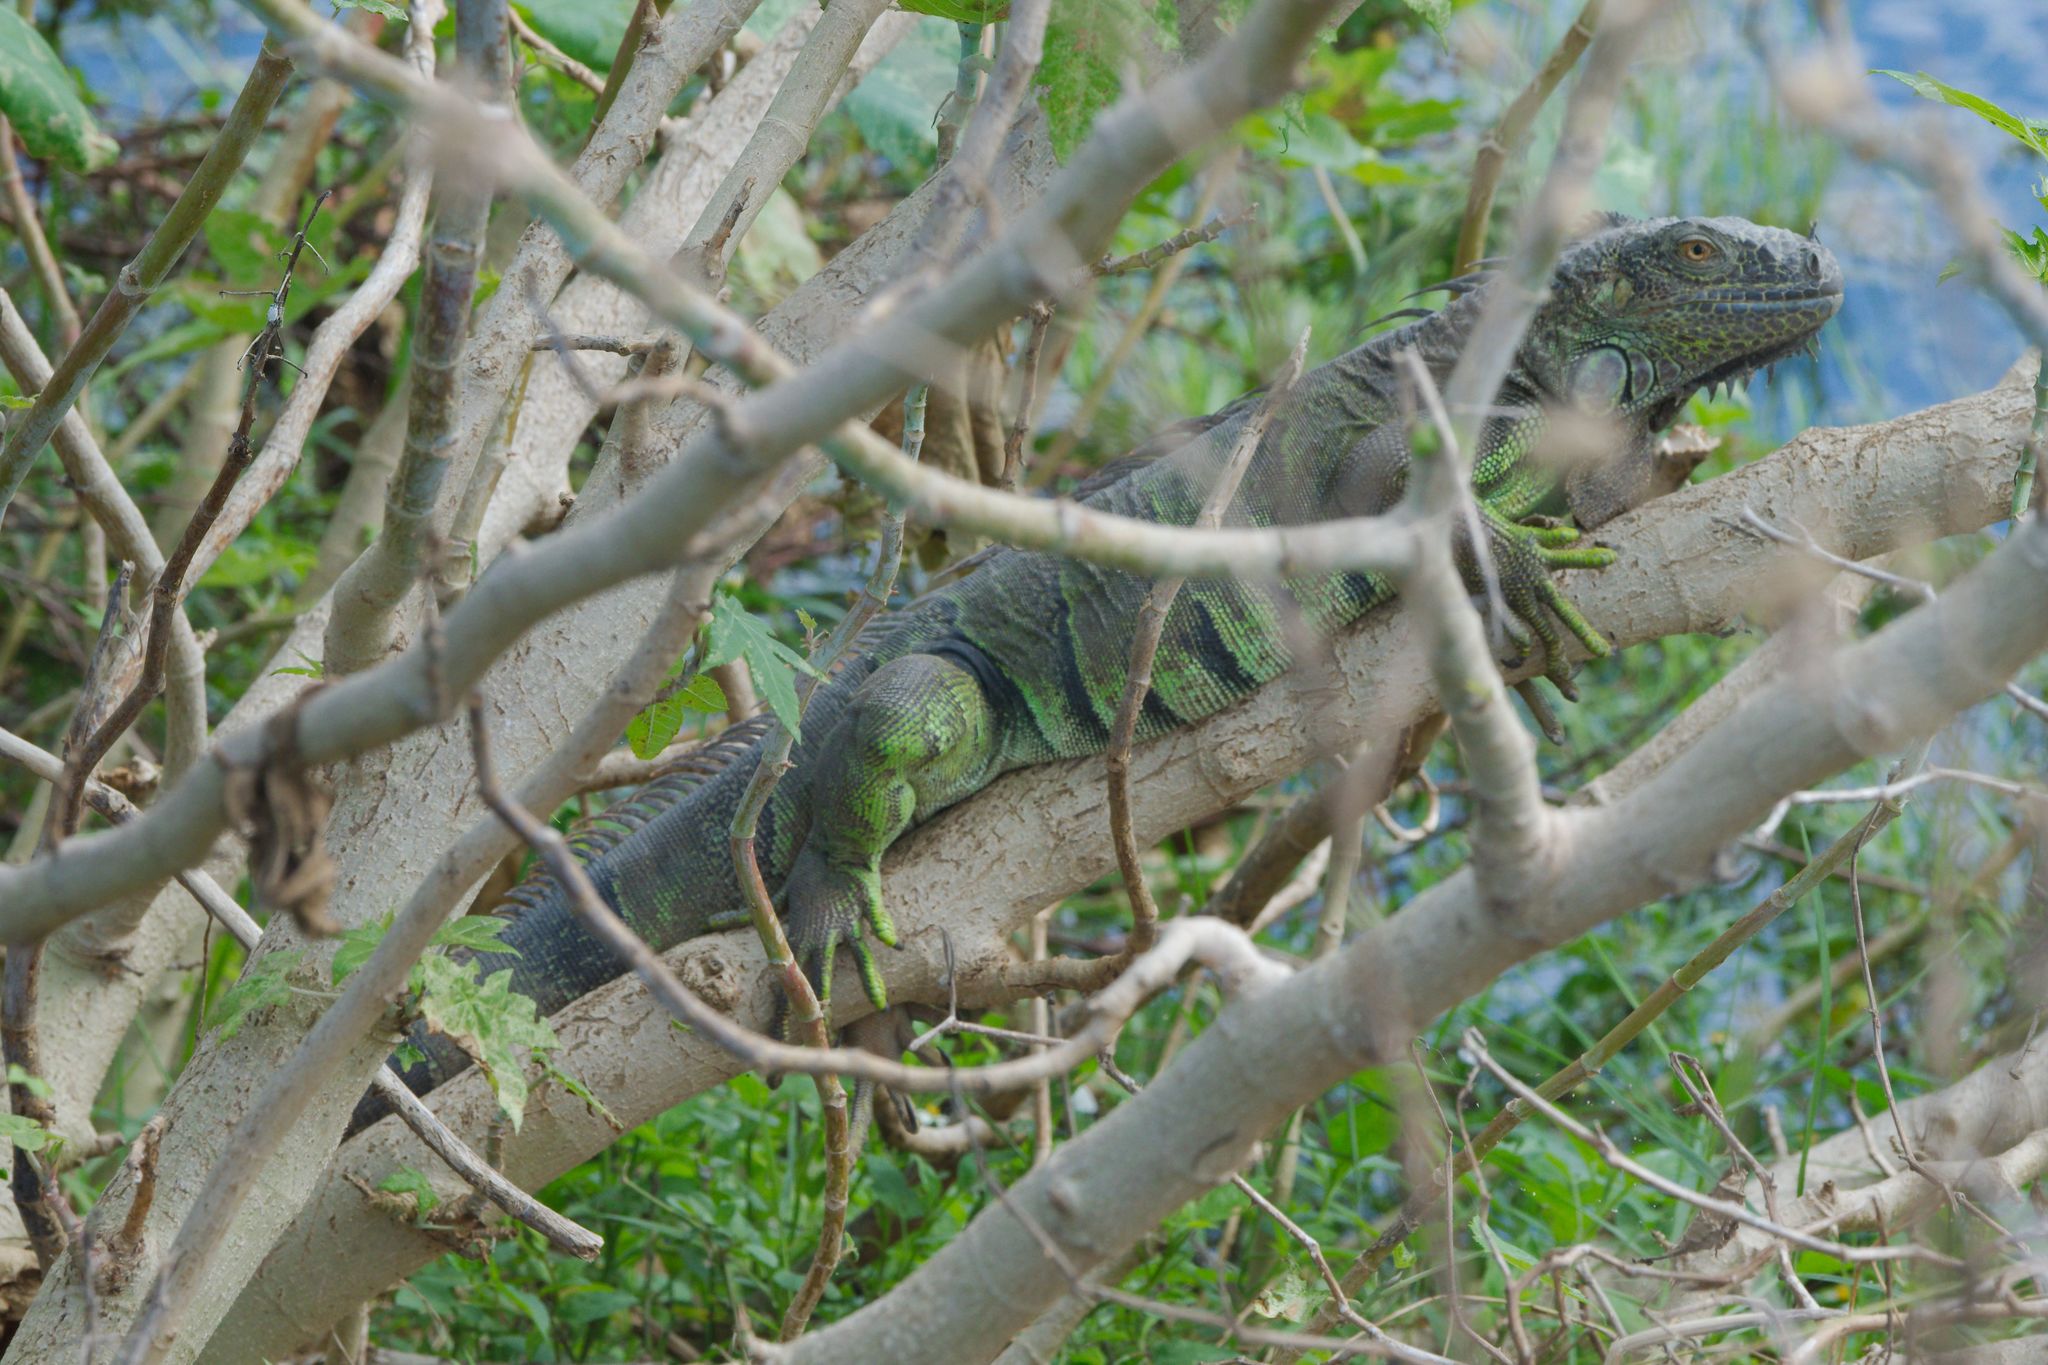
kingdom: Animalia
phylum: Chordata
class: Squamata
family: Iguanidae
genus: Iguana
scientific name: Iguana iguana
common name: Green iguana
